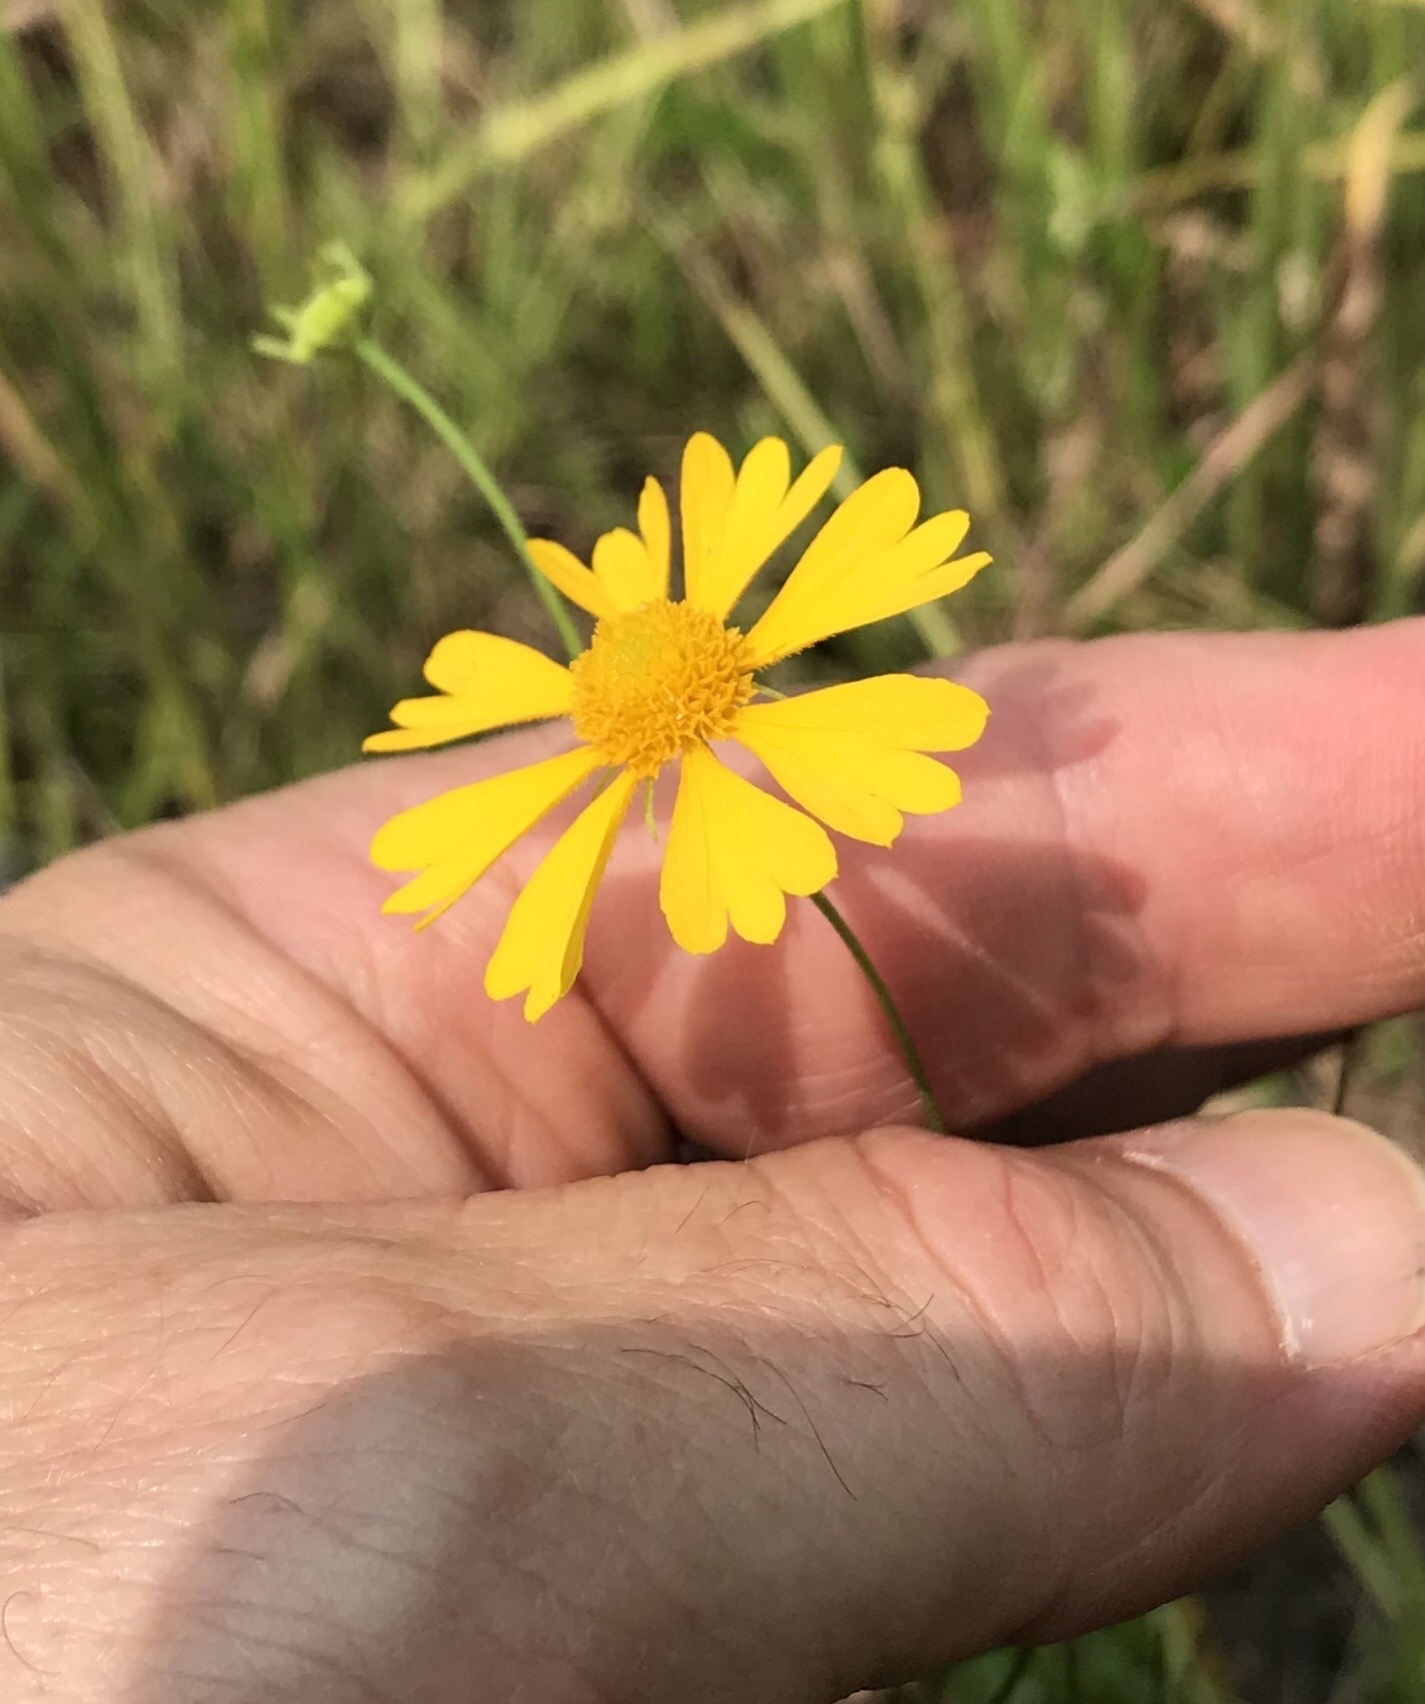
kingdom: Plantae
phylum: Tracheophyta
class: Magnoliopsida
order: Asterales
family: Asteraceae
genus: Helenium
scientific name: Helenium amarum
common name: Bitter sneezeweed
